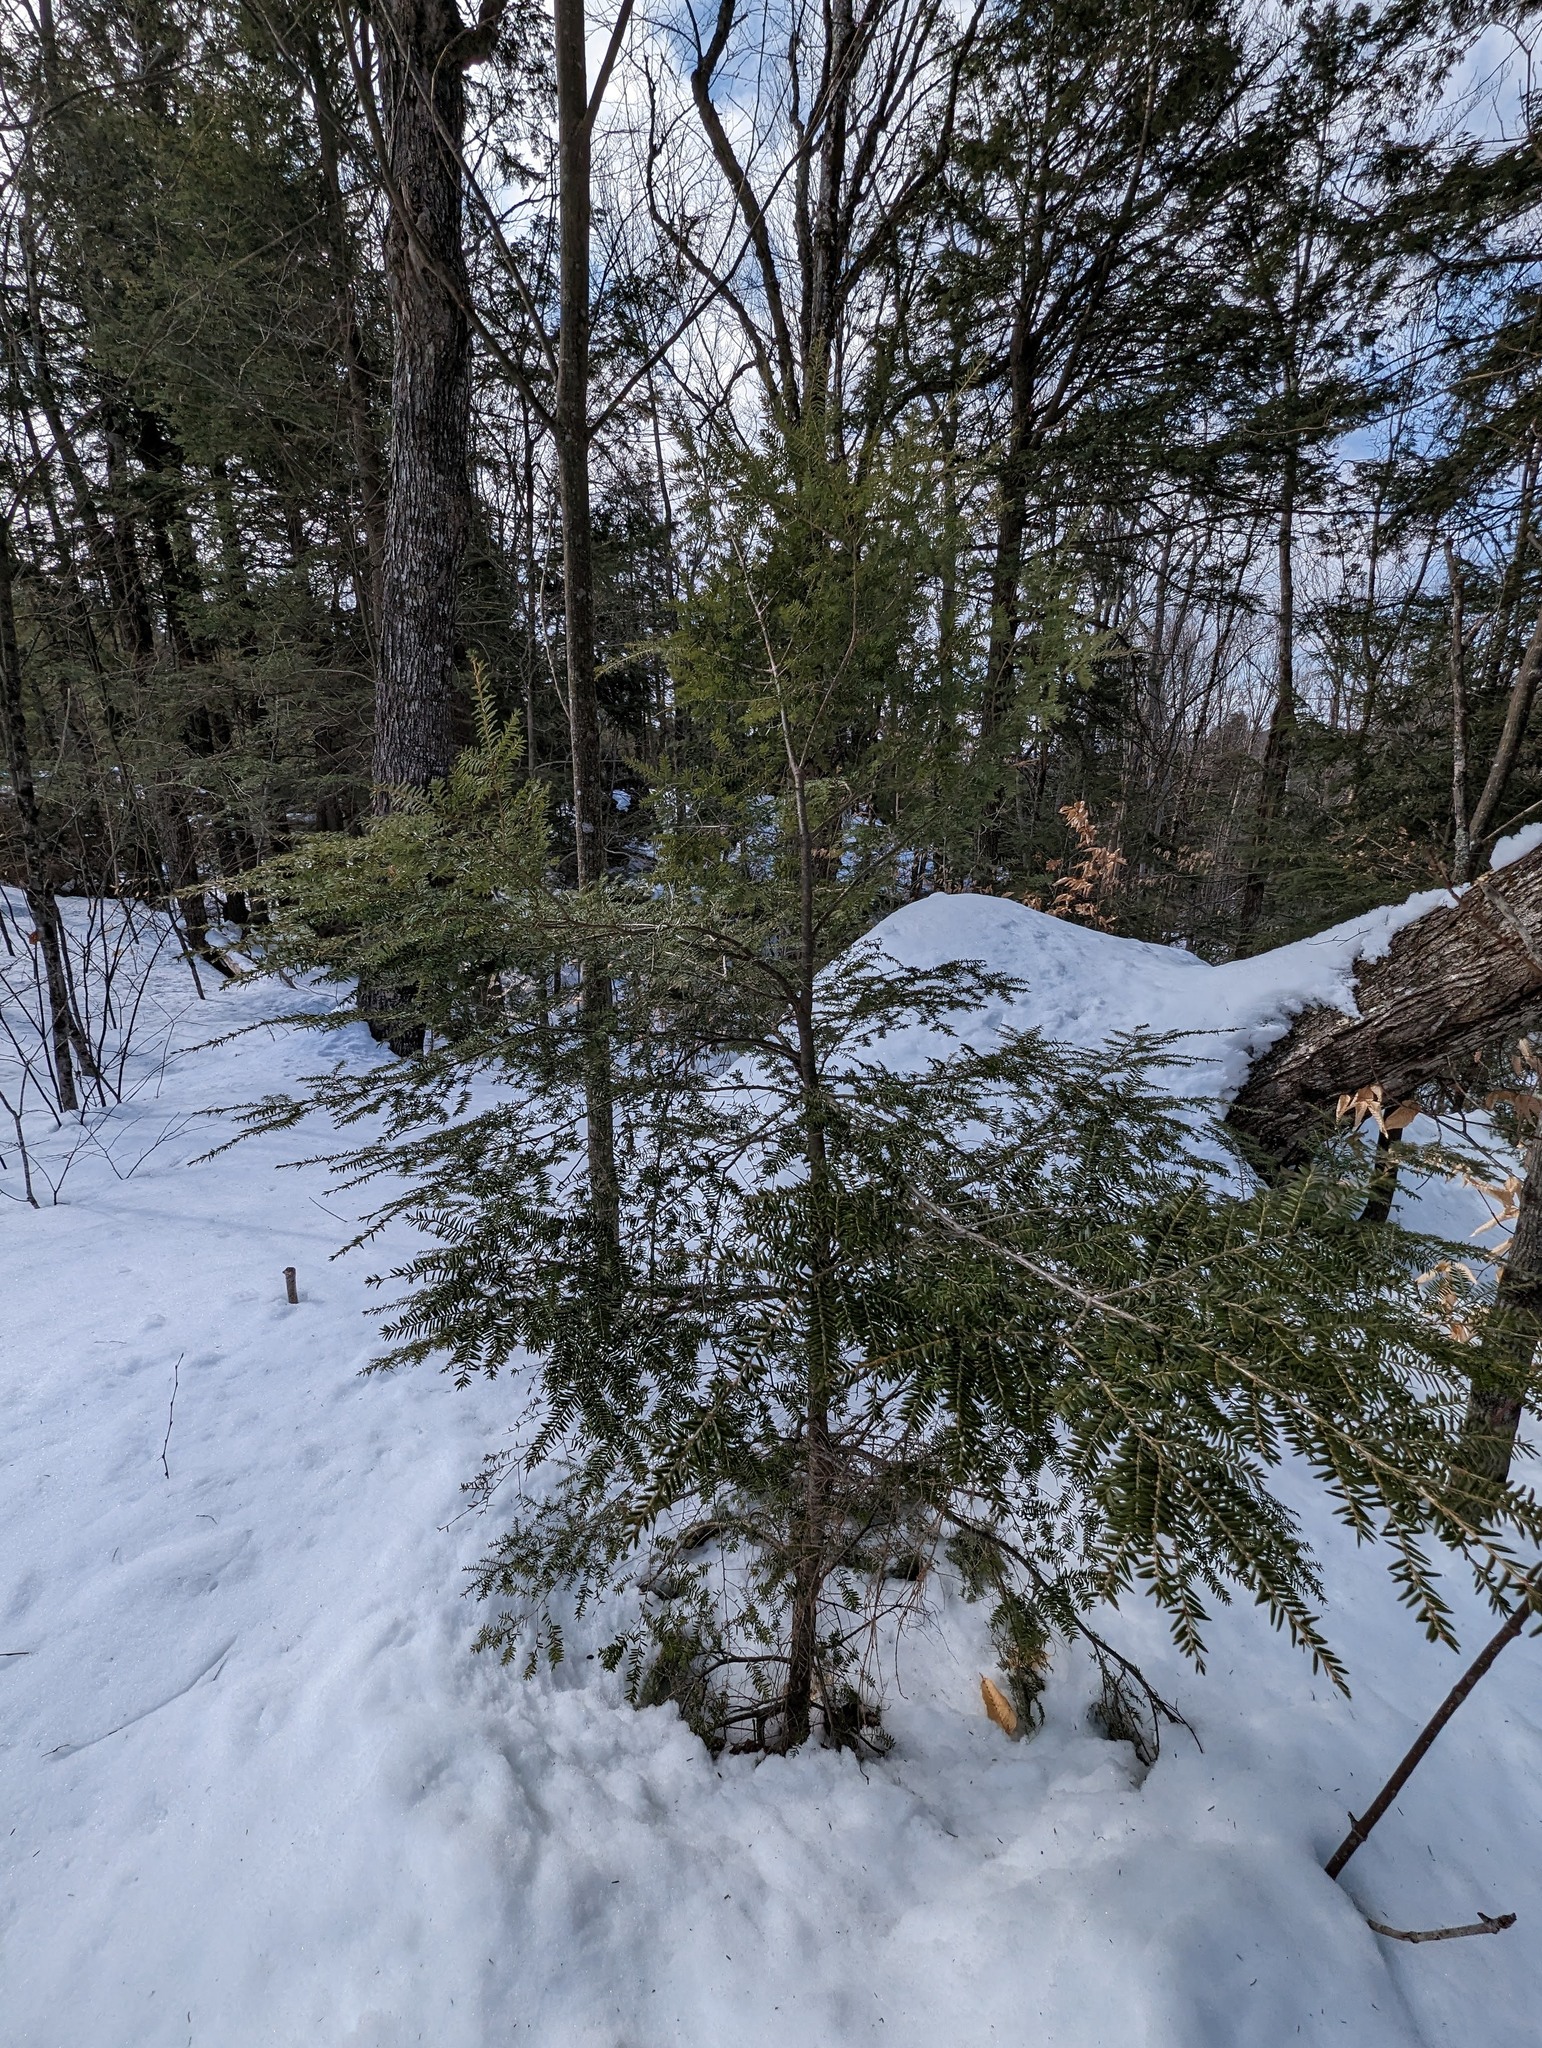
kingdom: Plantae
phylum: Tracheophyta
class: Pinopsida
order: Pinales
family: Pinaceae
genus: Tsuga
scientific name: Tsuga canadensis
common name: Eastern hemlock
